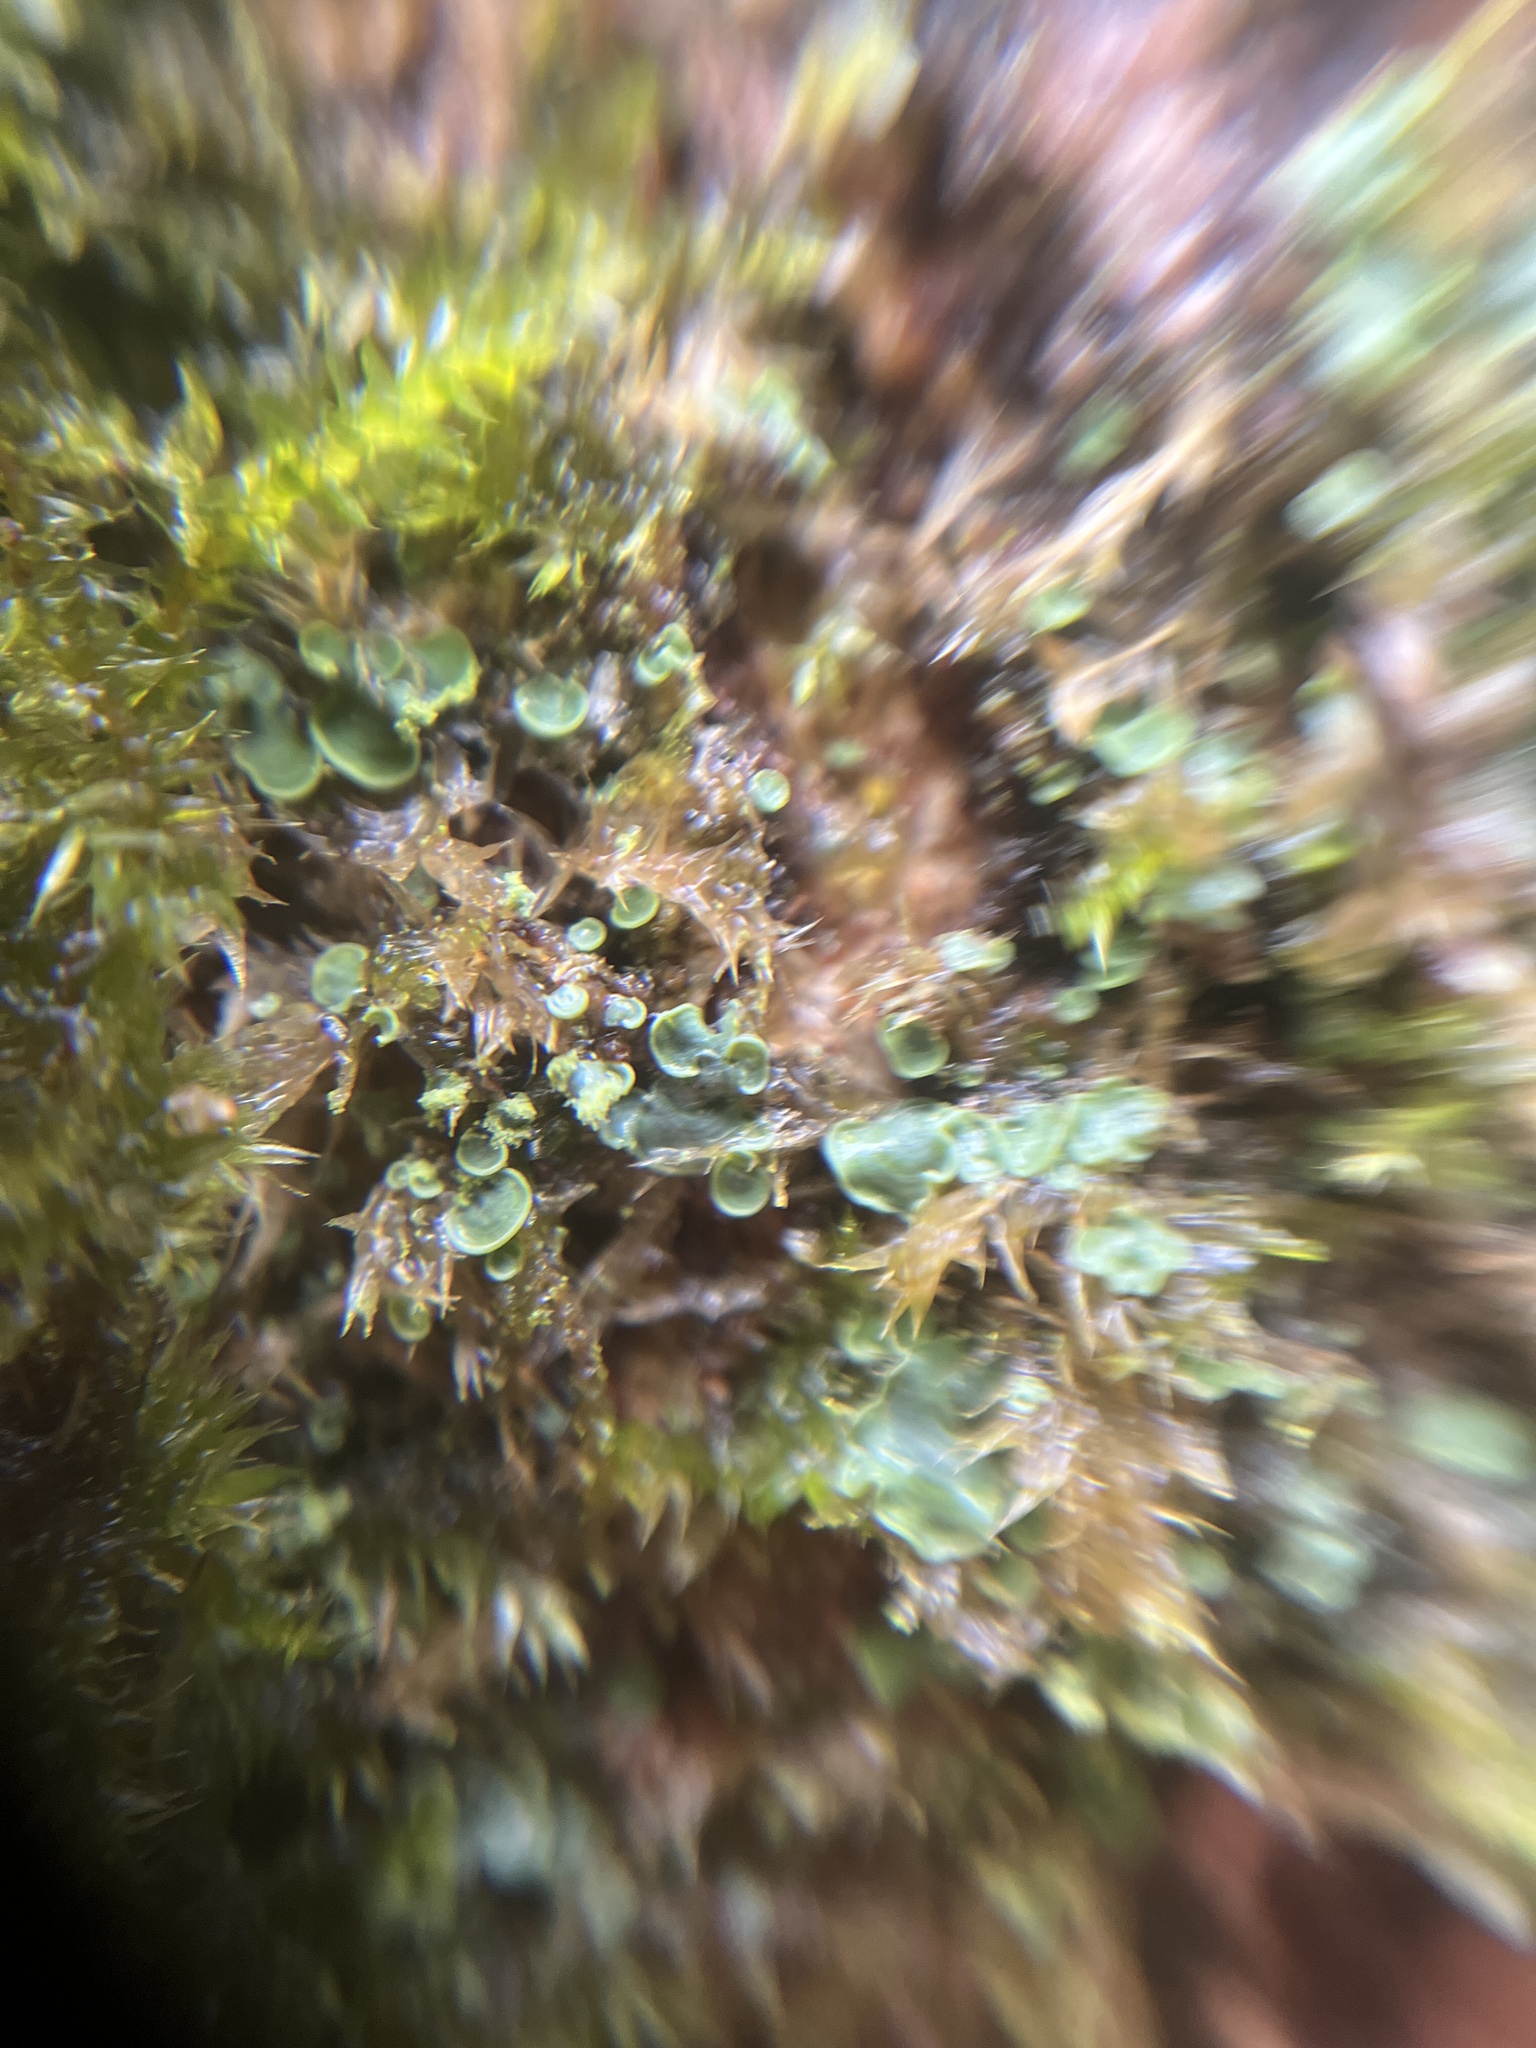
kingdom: Fungi
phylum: Ascomycota
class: Eurotiomycetes
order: Verrucariales
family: Verrucariaceae
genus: Normandina
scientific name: Normandina pulchella
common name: Elf ears lichen
